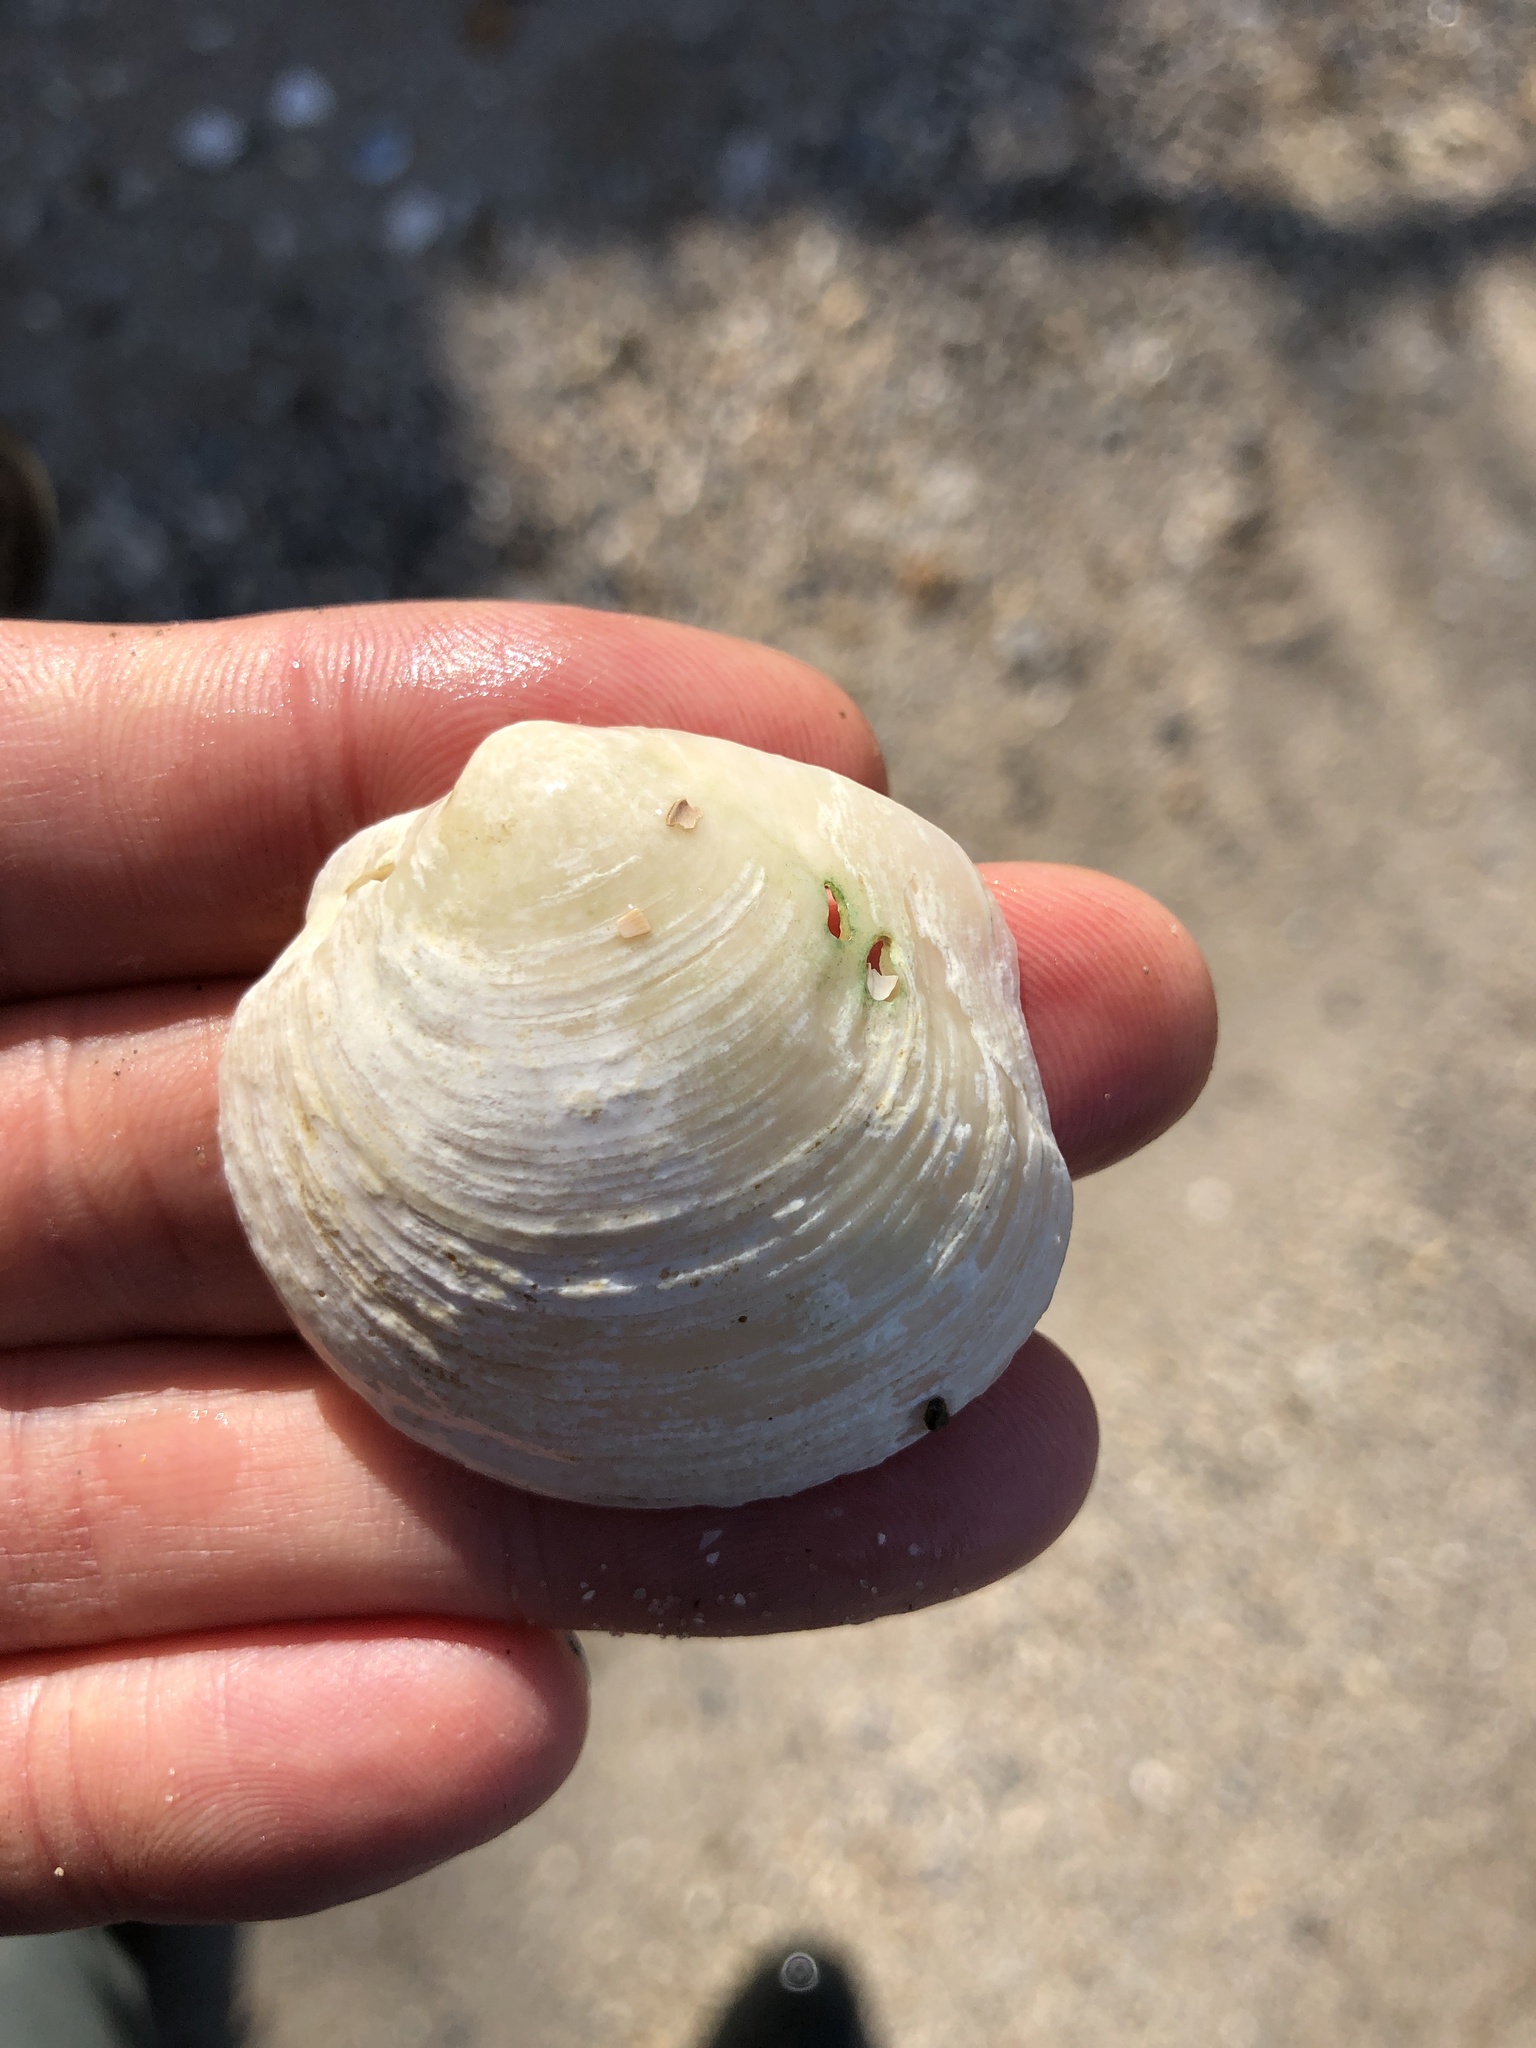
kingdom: Animalia
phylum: Mollusca
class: Bivalvia
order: Lucinida
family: Lucinidae
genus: Phacoides
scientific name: Phacoides pectinatus
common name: Thick lucine
